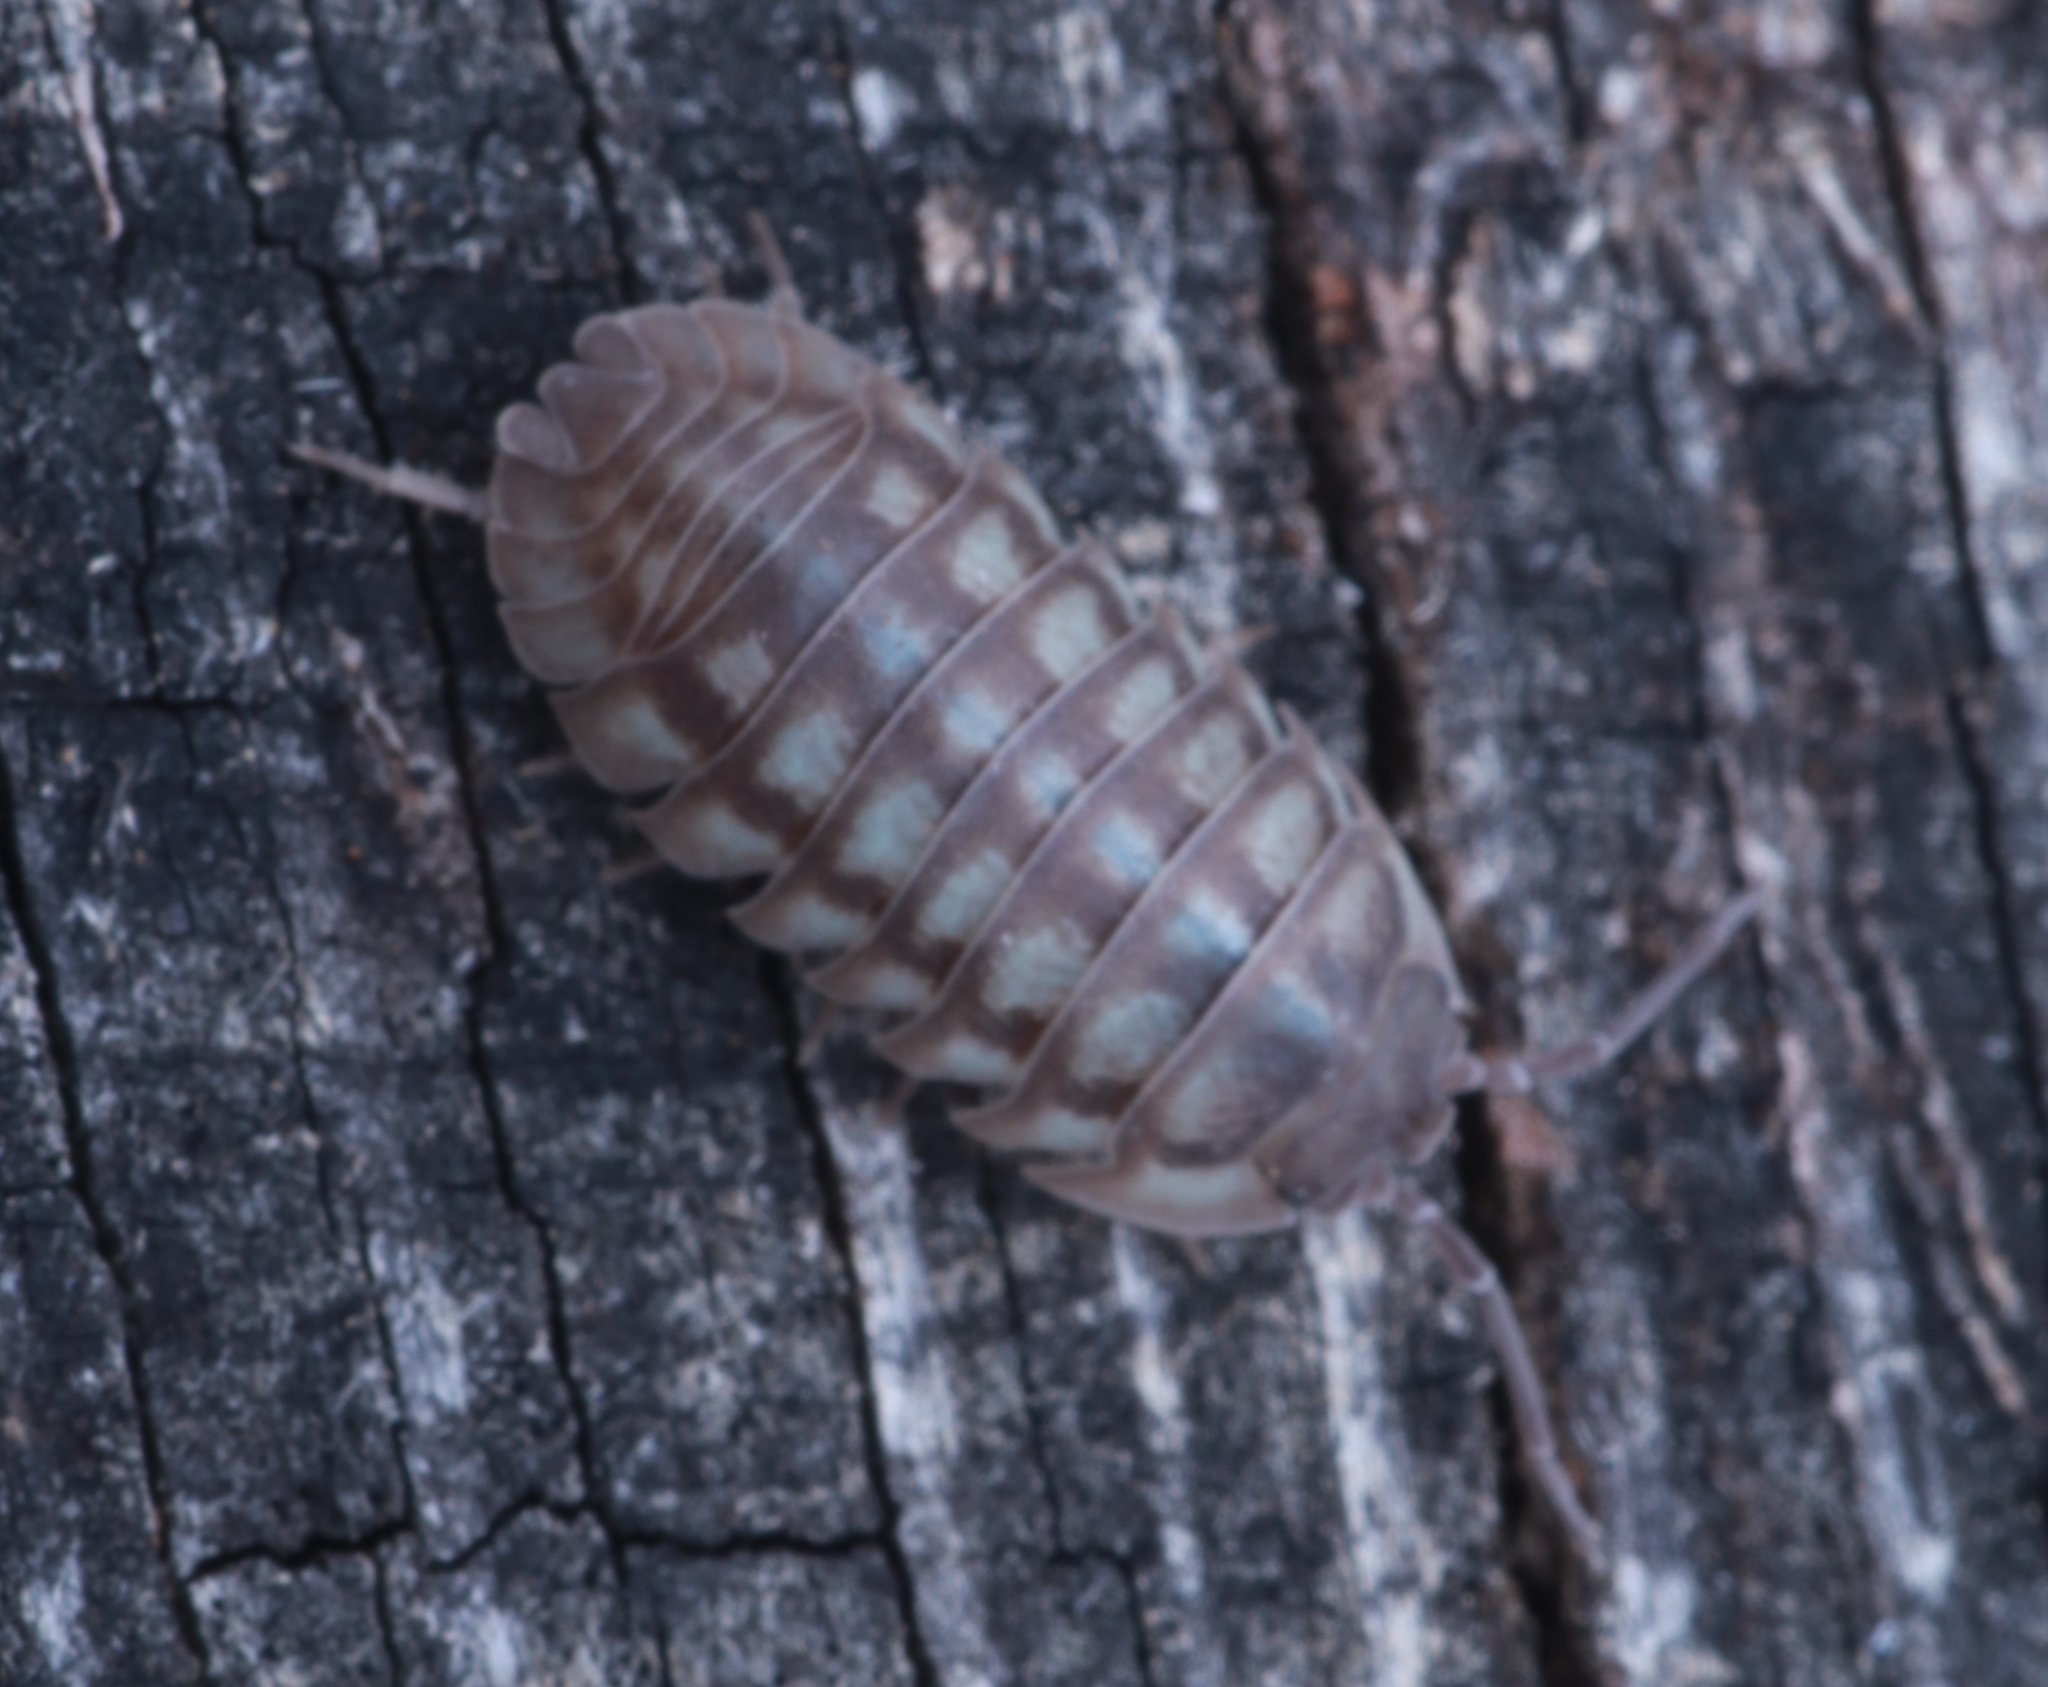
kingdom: Animalia
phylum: Arthropoda
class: Malacostraca
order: Isopoda
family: Armadillidiidae
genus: Armadillidium
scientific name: Armadillidium nasatum
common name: Isopod
